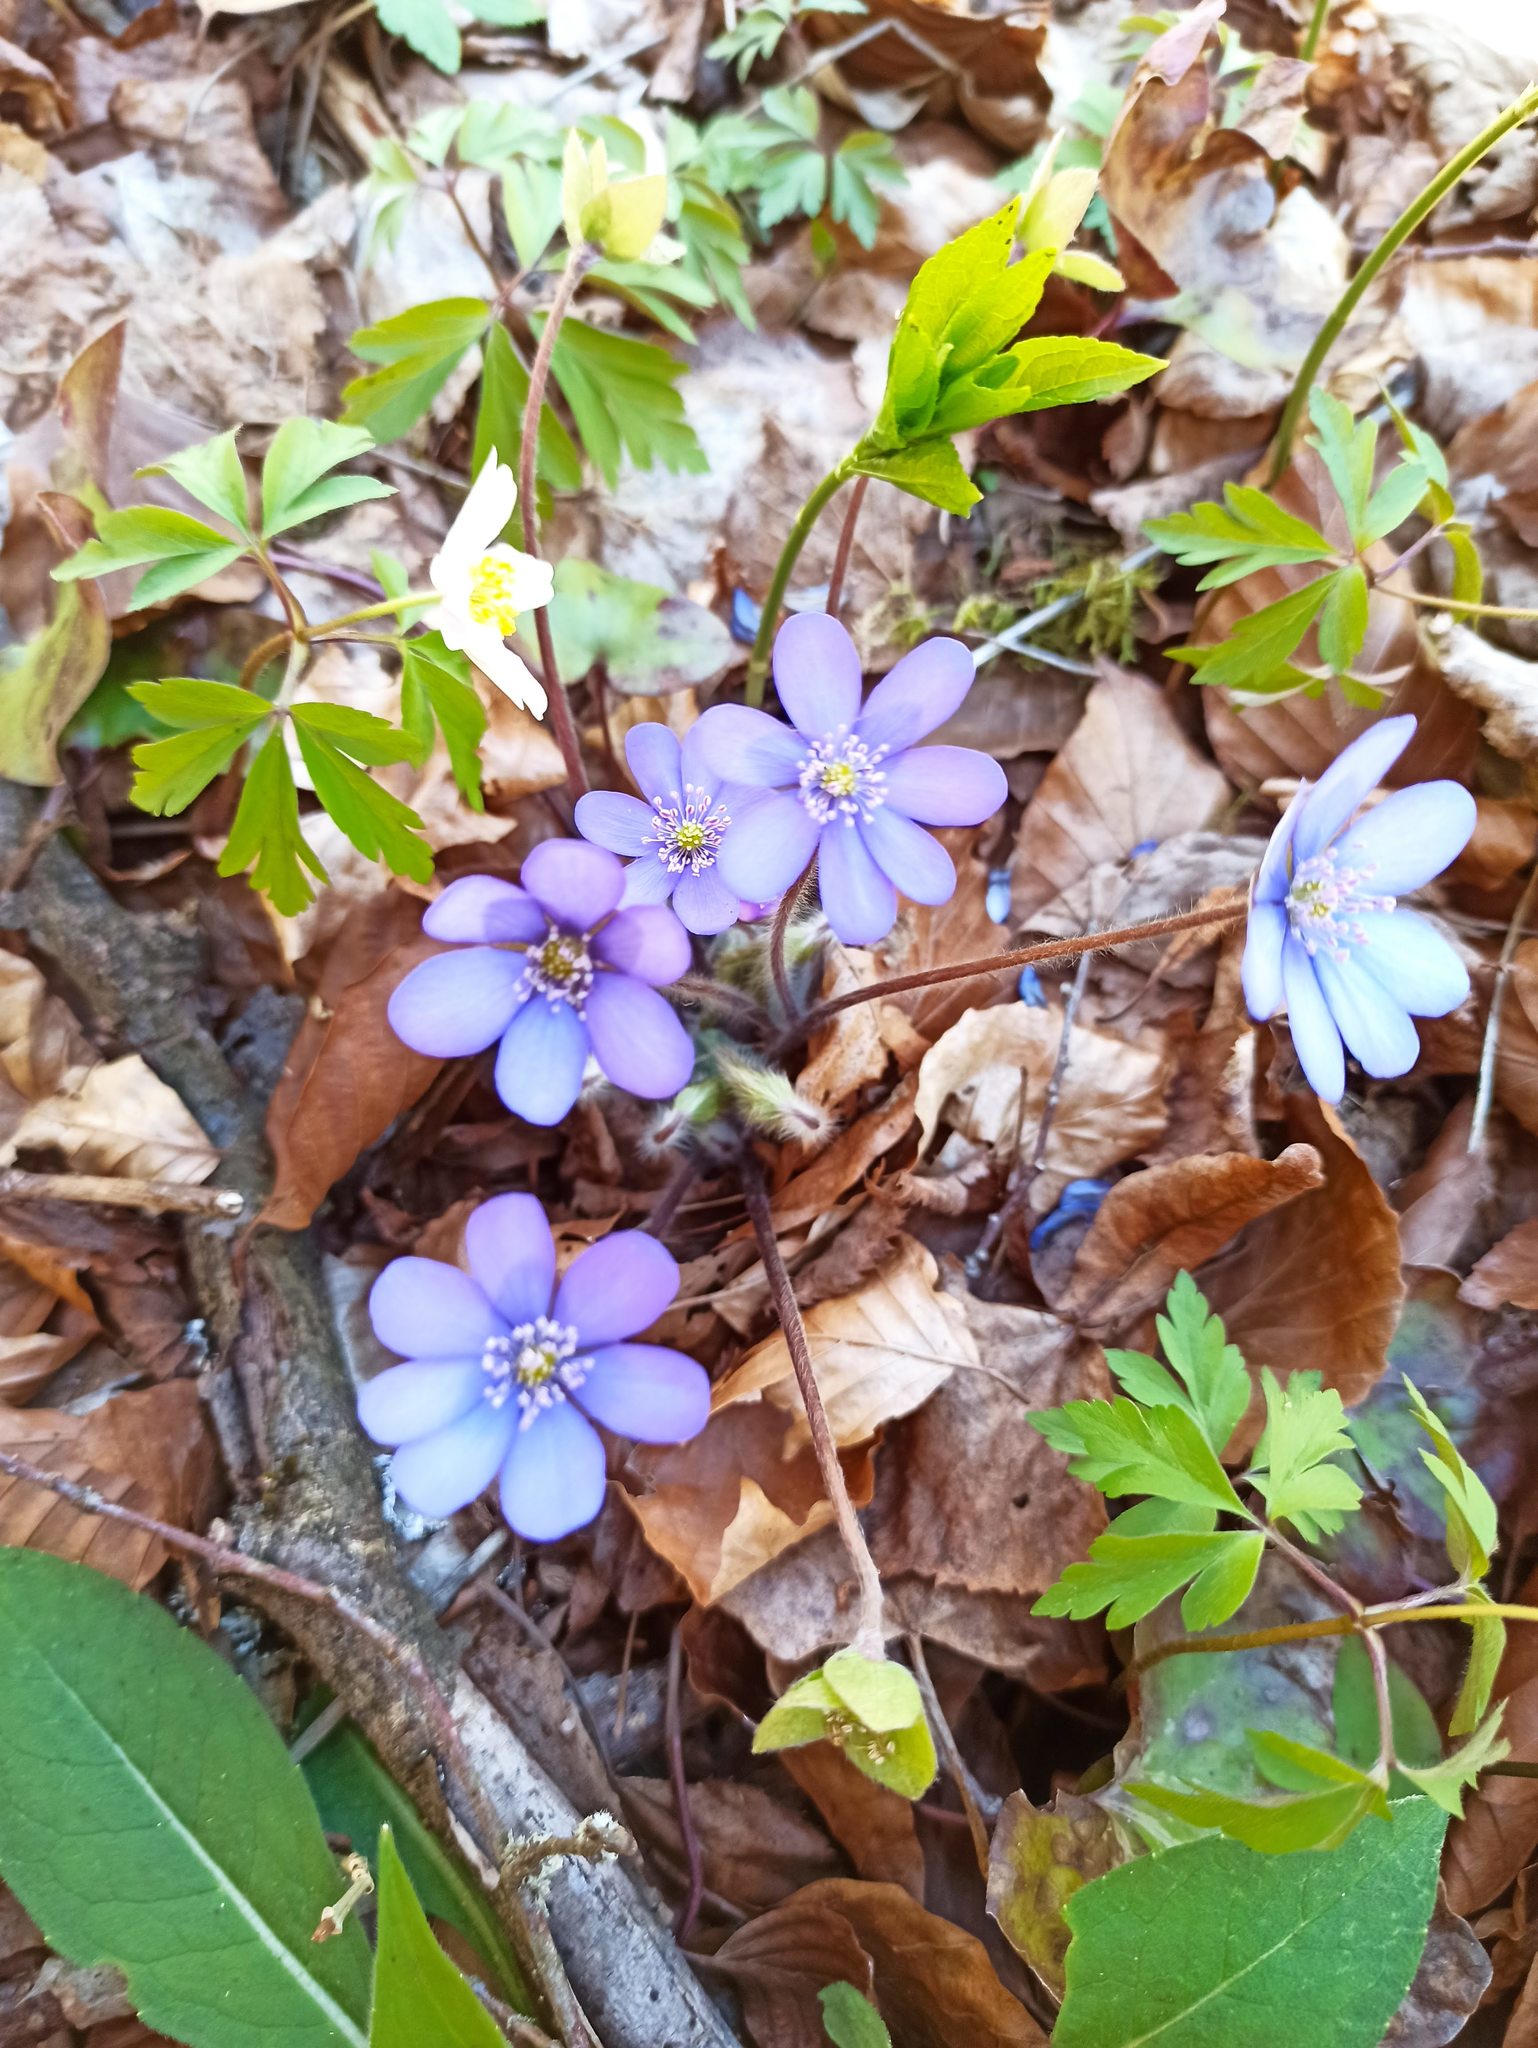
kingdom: Plantae
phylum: Tracheophyta
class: Magnoliopsida
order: Ranunculales
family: Ranunculaceae
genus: Hepatica
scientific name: Hepatica nobilis
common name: Liverleaf
